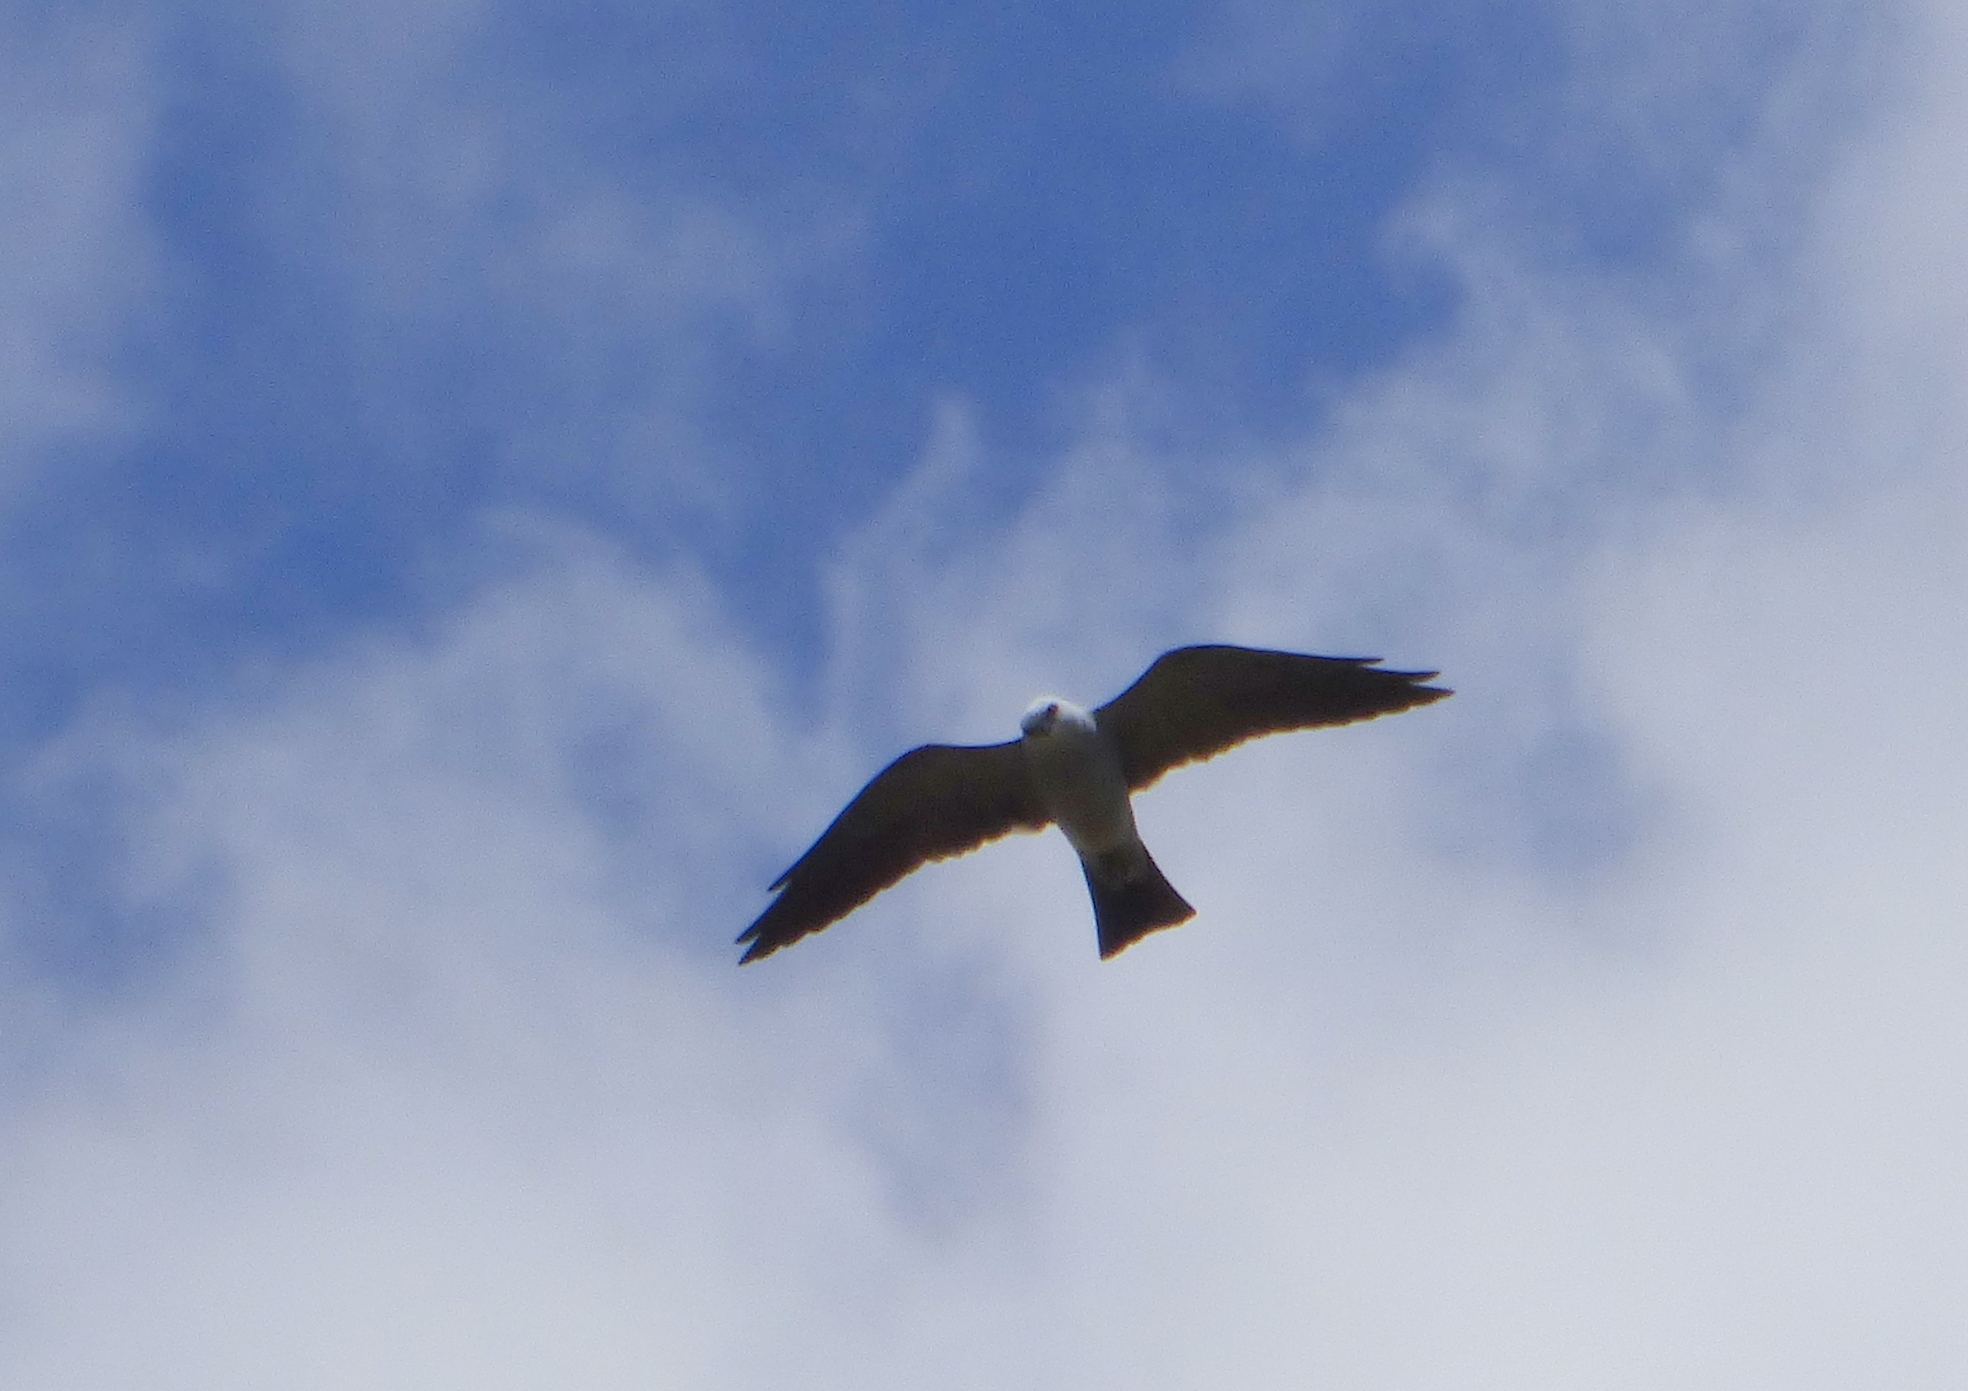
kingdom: Animalia
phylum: Chordata
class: Aves
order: Accipitriformes
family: Accipitridae
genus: Ictinia
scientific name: Ictinia mississippiensis
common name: Mississippi kite
